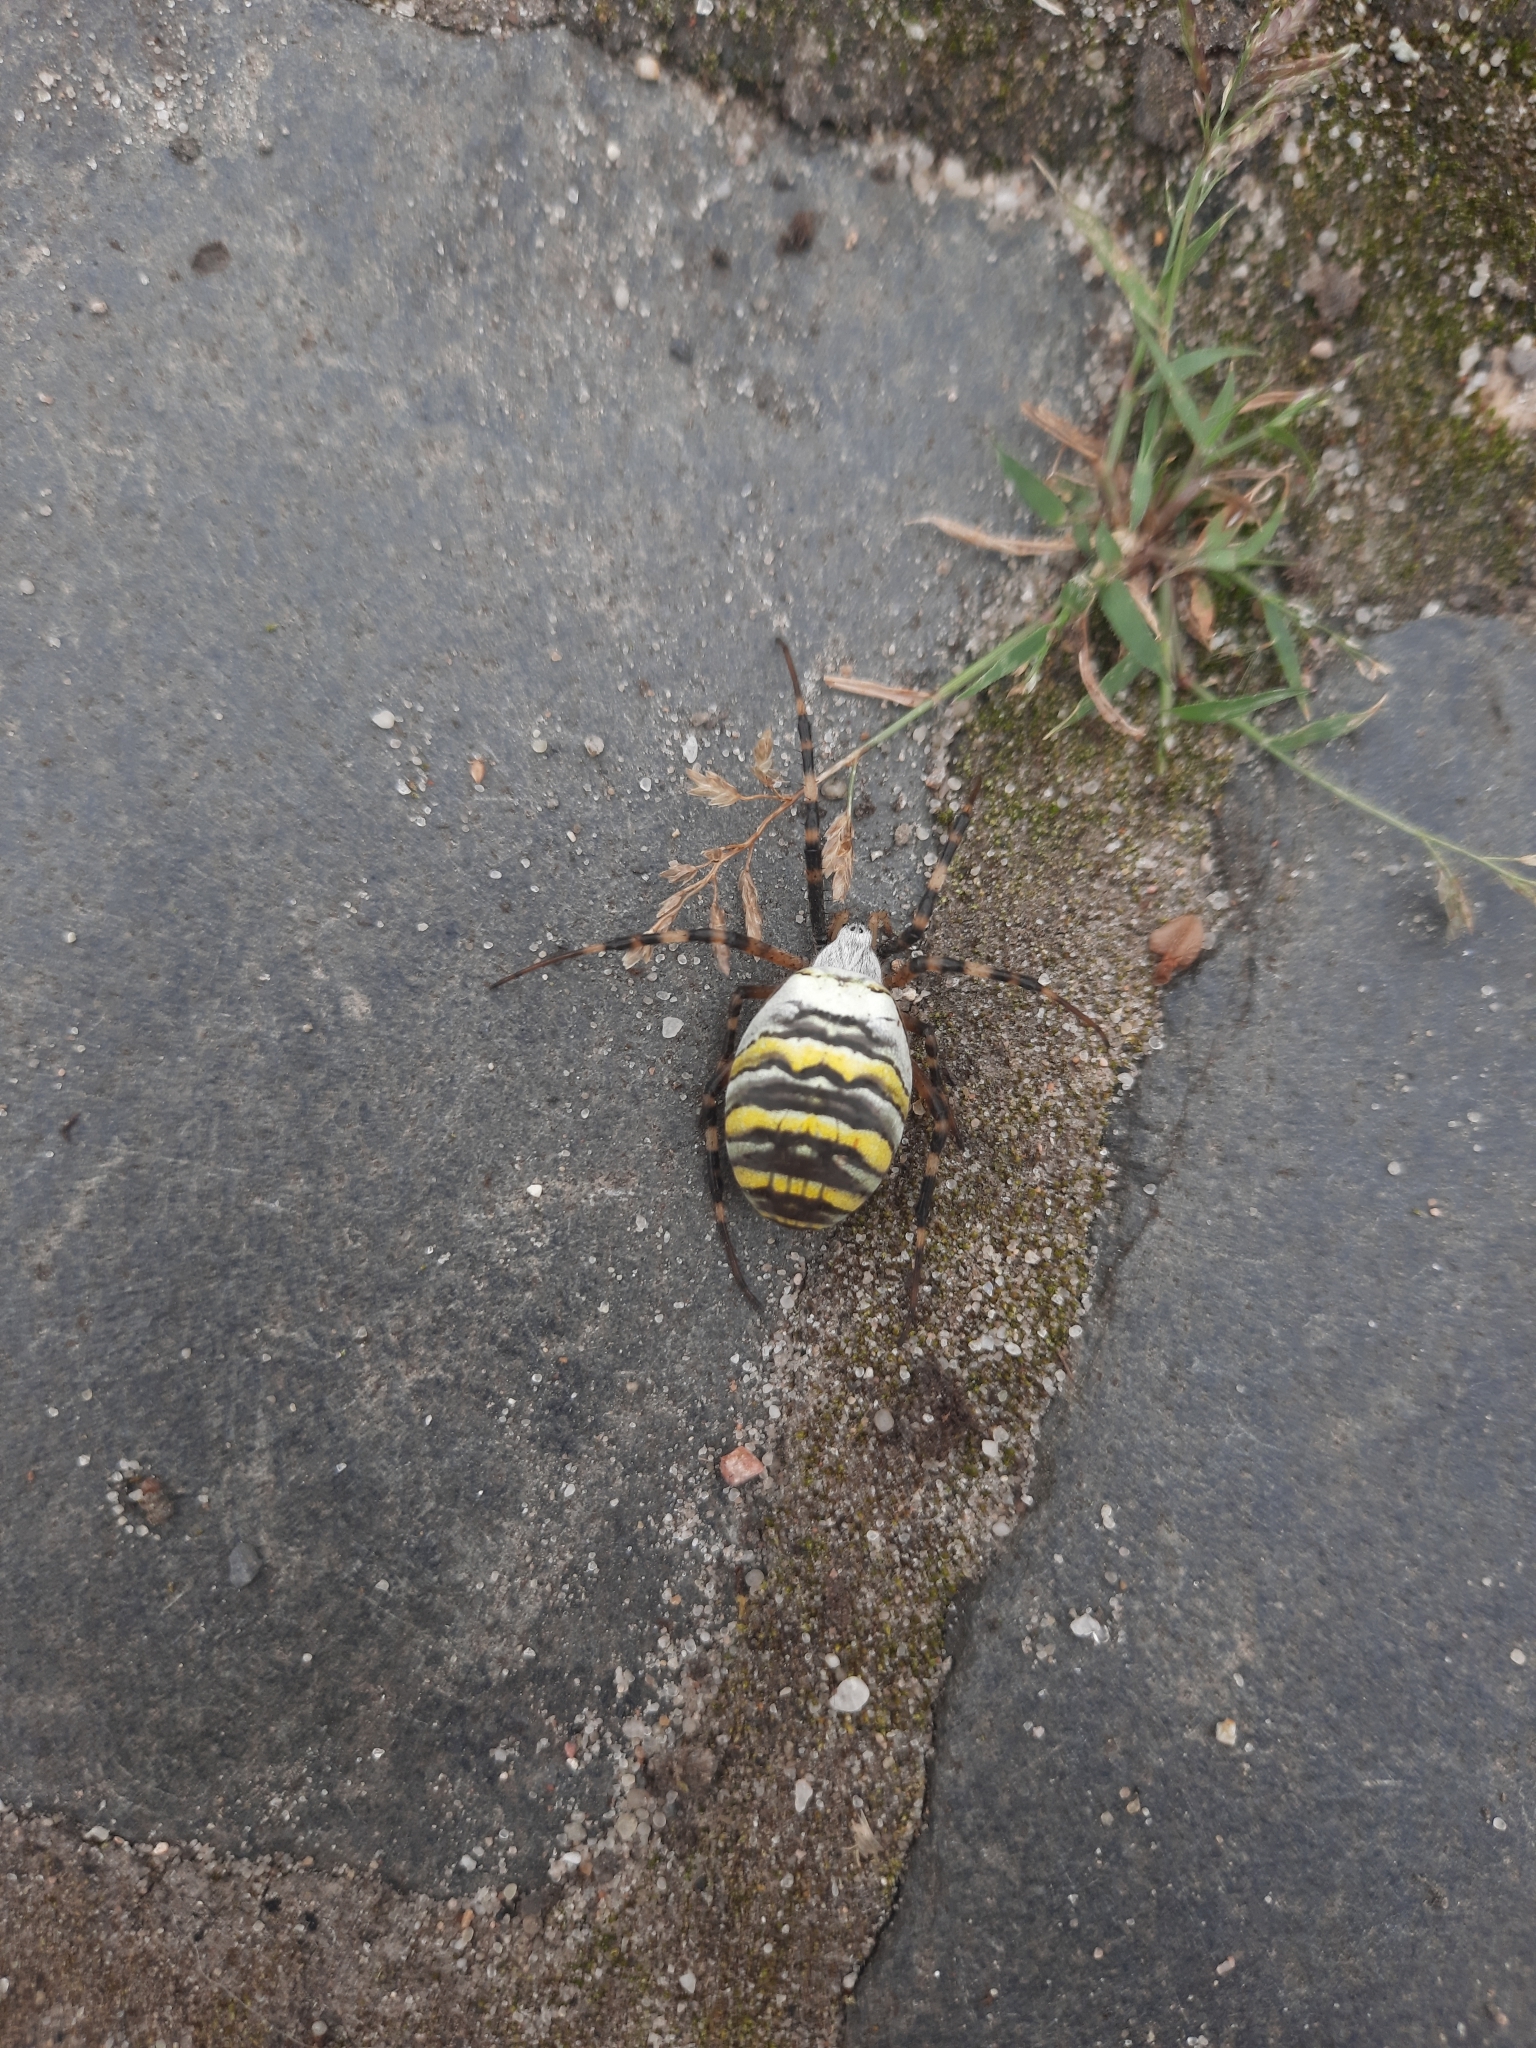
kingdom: Animalia
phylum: Arthropoda
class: Arachnida
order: Araneae
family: Araneidae
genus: Argiope
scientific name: Argiope bruennichi
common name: Wasp spider
